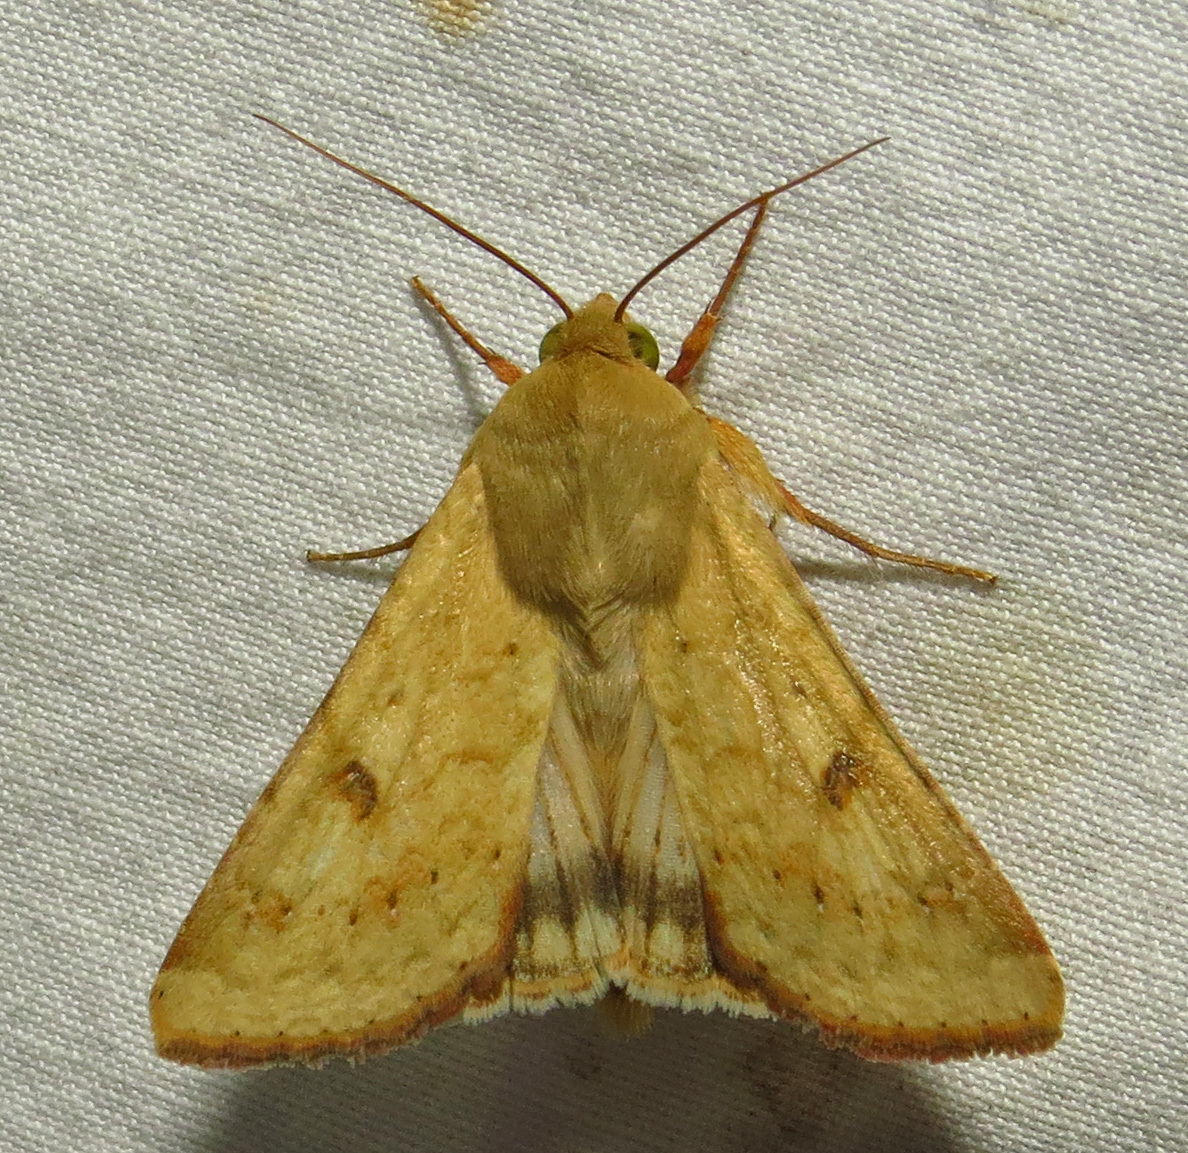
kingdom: Animalia
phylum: Arthropoda
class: Insecta
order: Lepidoptera
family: Noctuidae
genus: Helicoverpa
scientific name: Helicoverpa zea
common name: Bollworm
